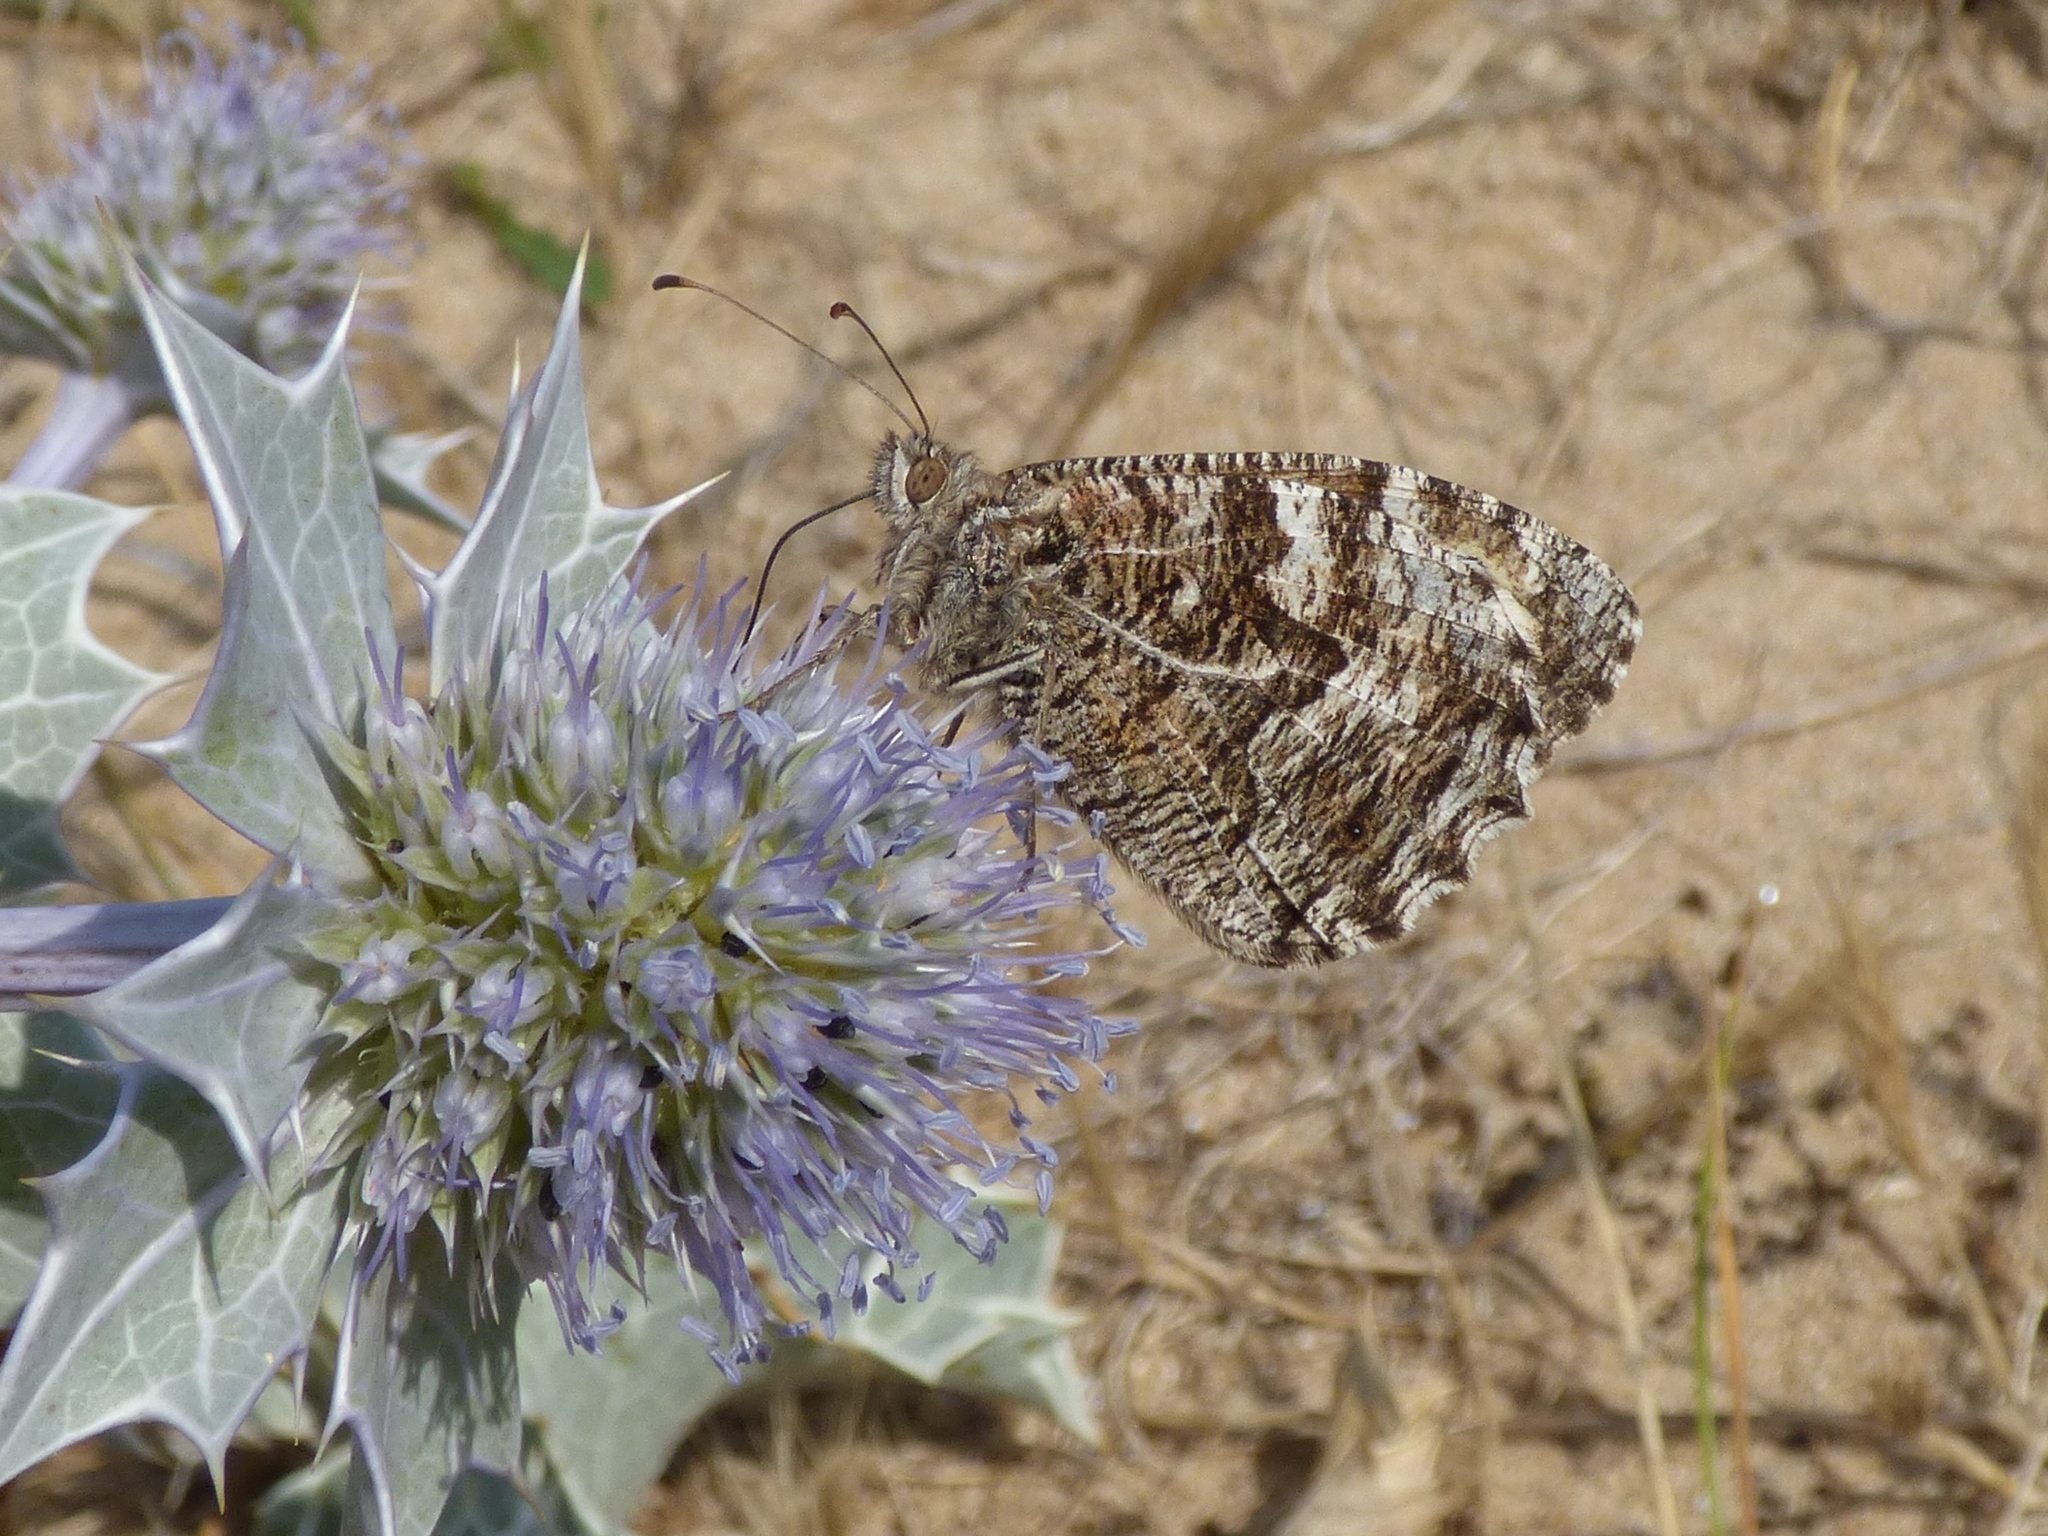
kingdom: Animalia
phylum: Arthropoda
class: Insecta
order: Lepidoptera
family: Nymphalidae
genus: Hipparchia
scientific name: Hipparchia semele
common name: Grayling
